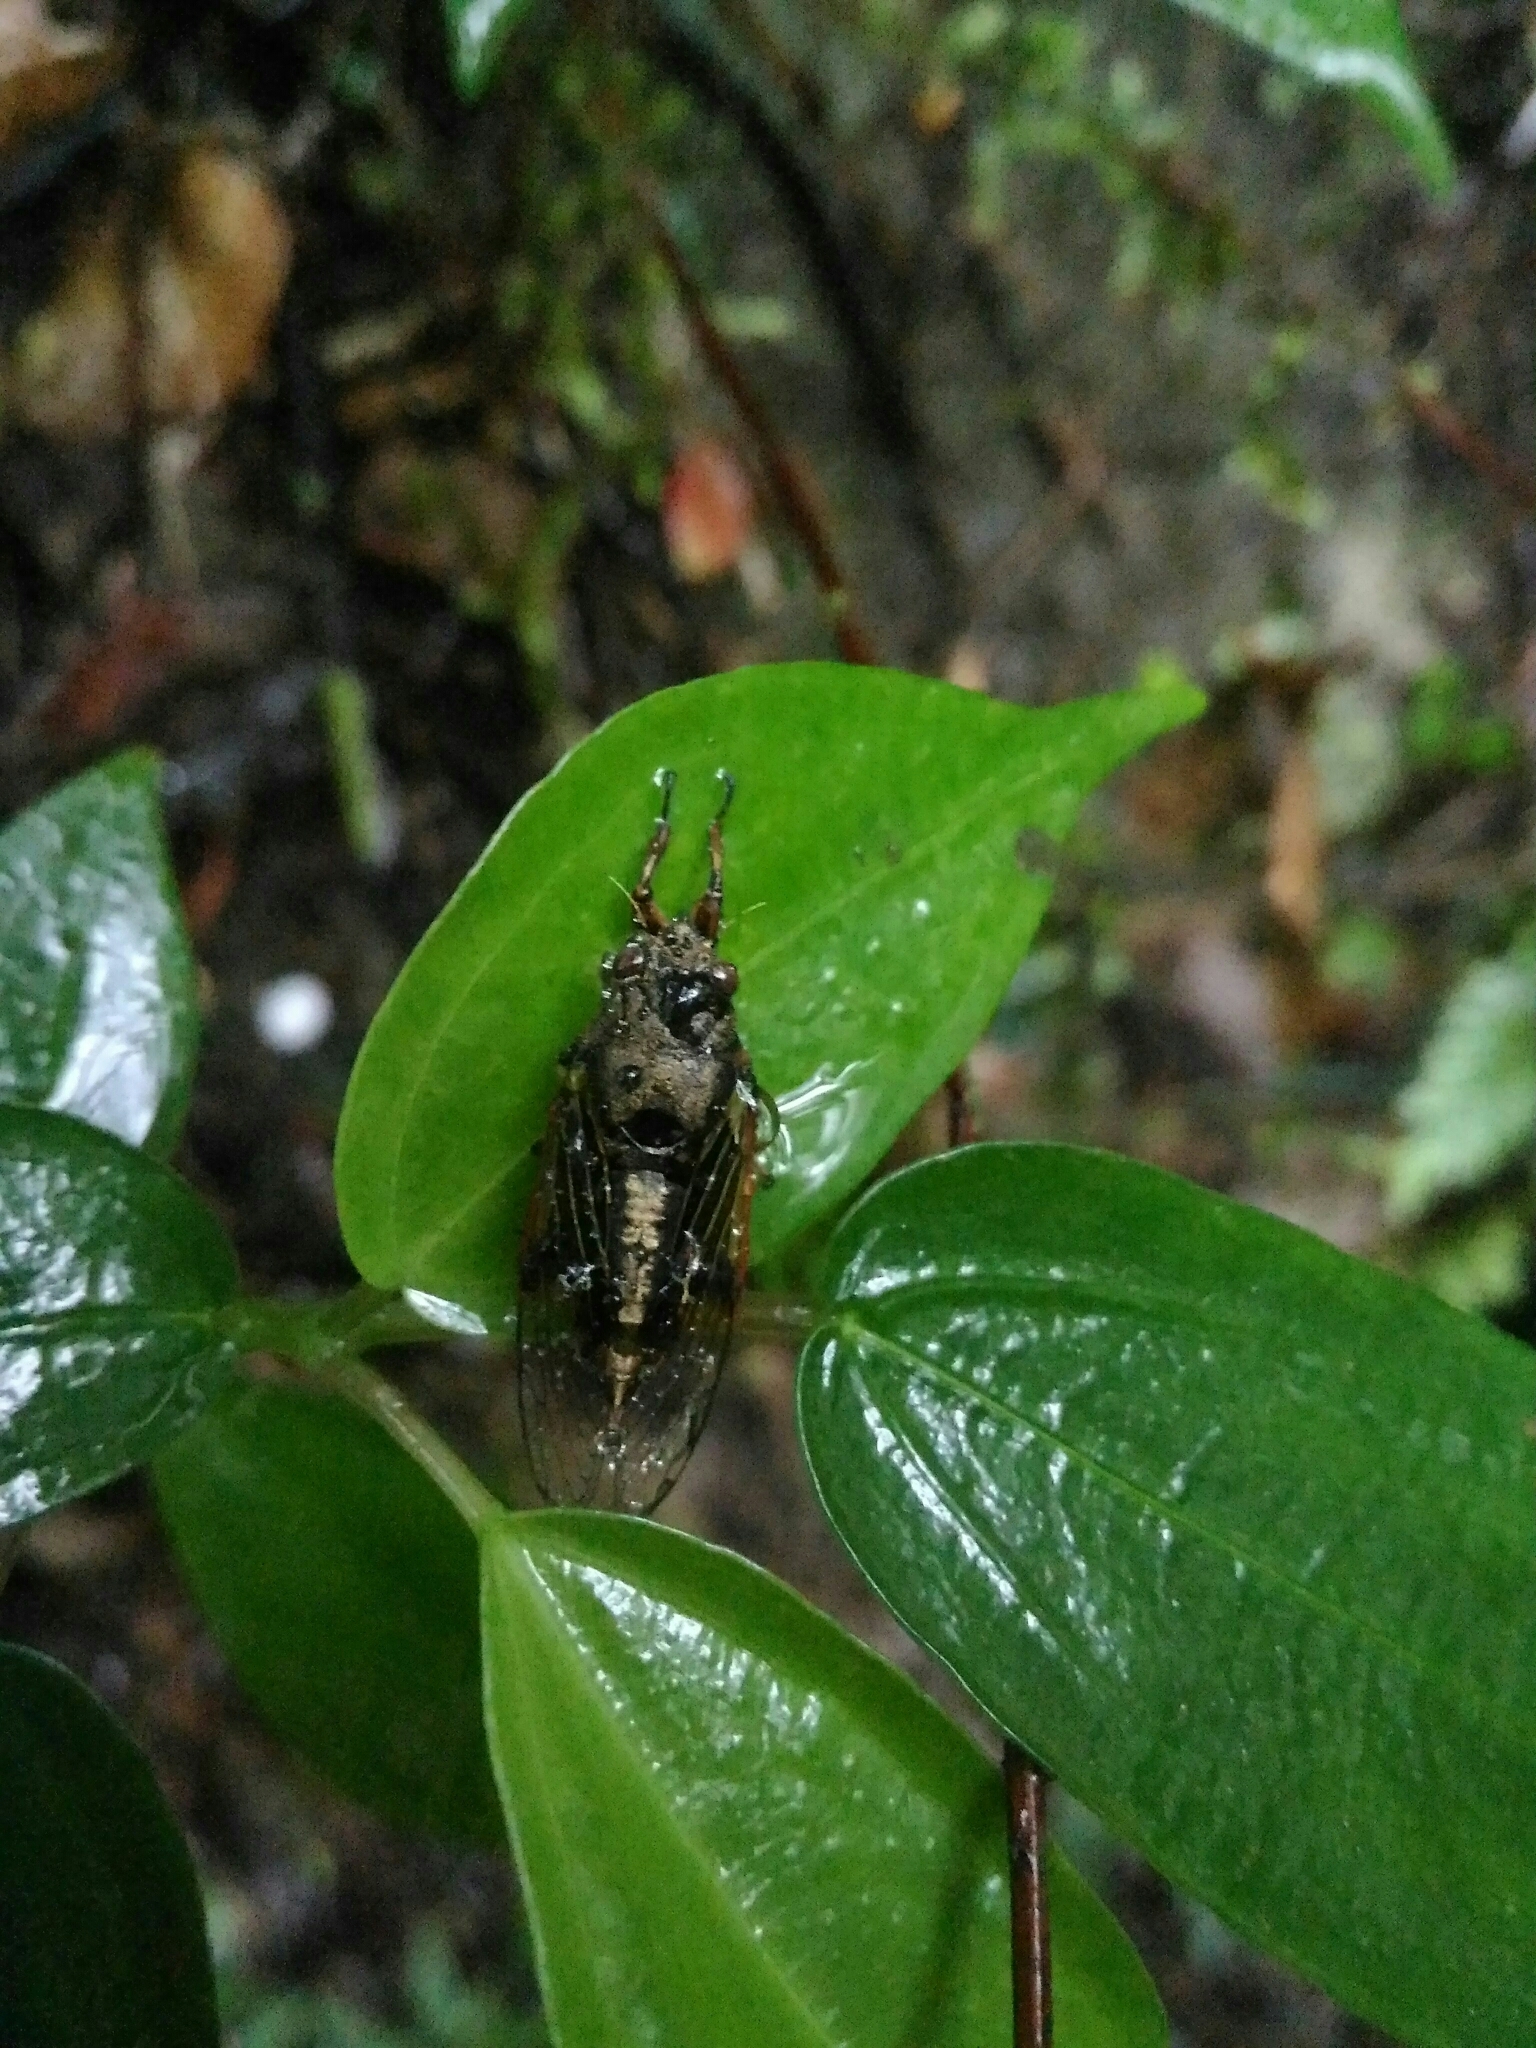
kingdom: Animalia
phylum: Arthropoda
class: Insecta
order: Hemiptera
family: Cicadidae
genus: Mogannia
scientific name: Mogannia formosana
